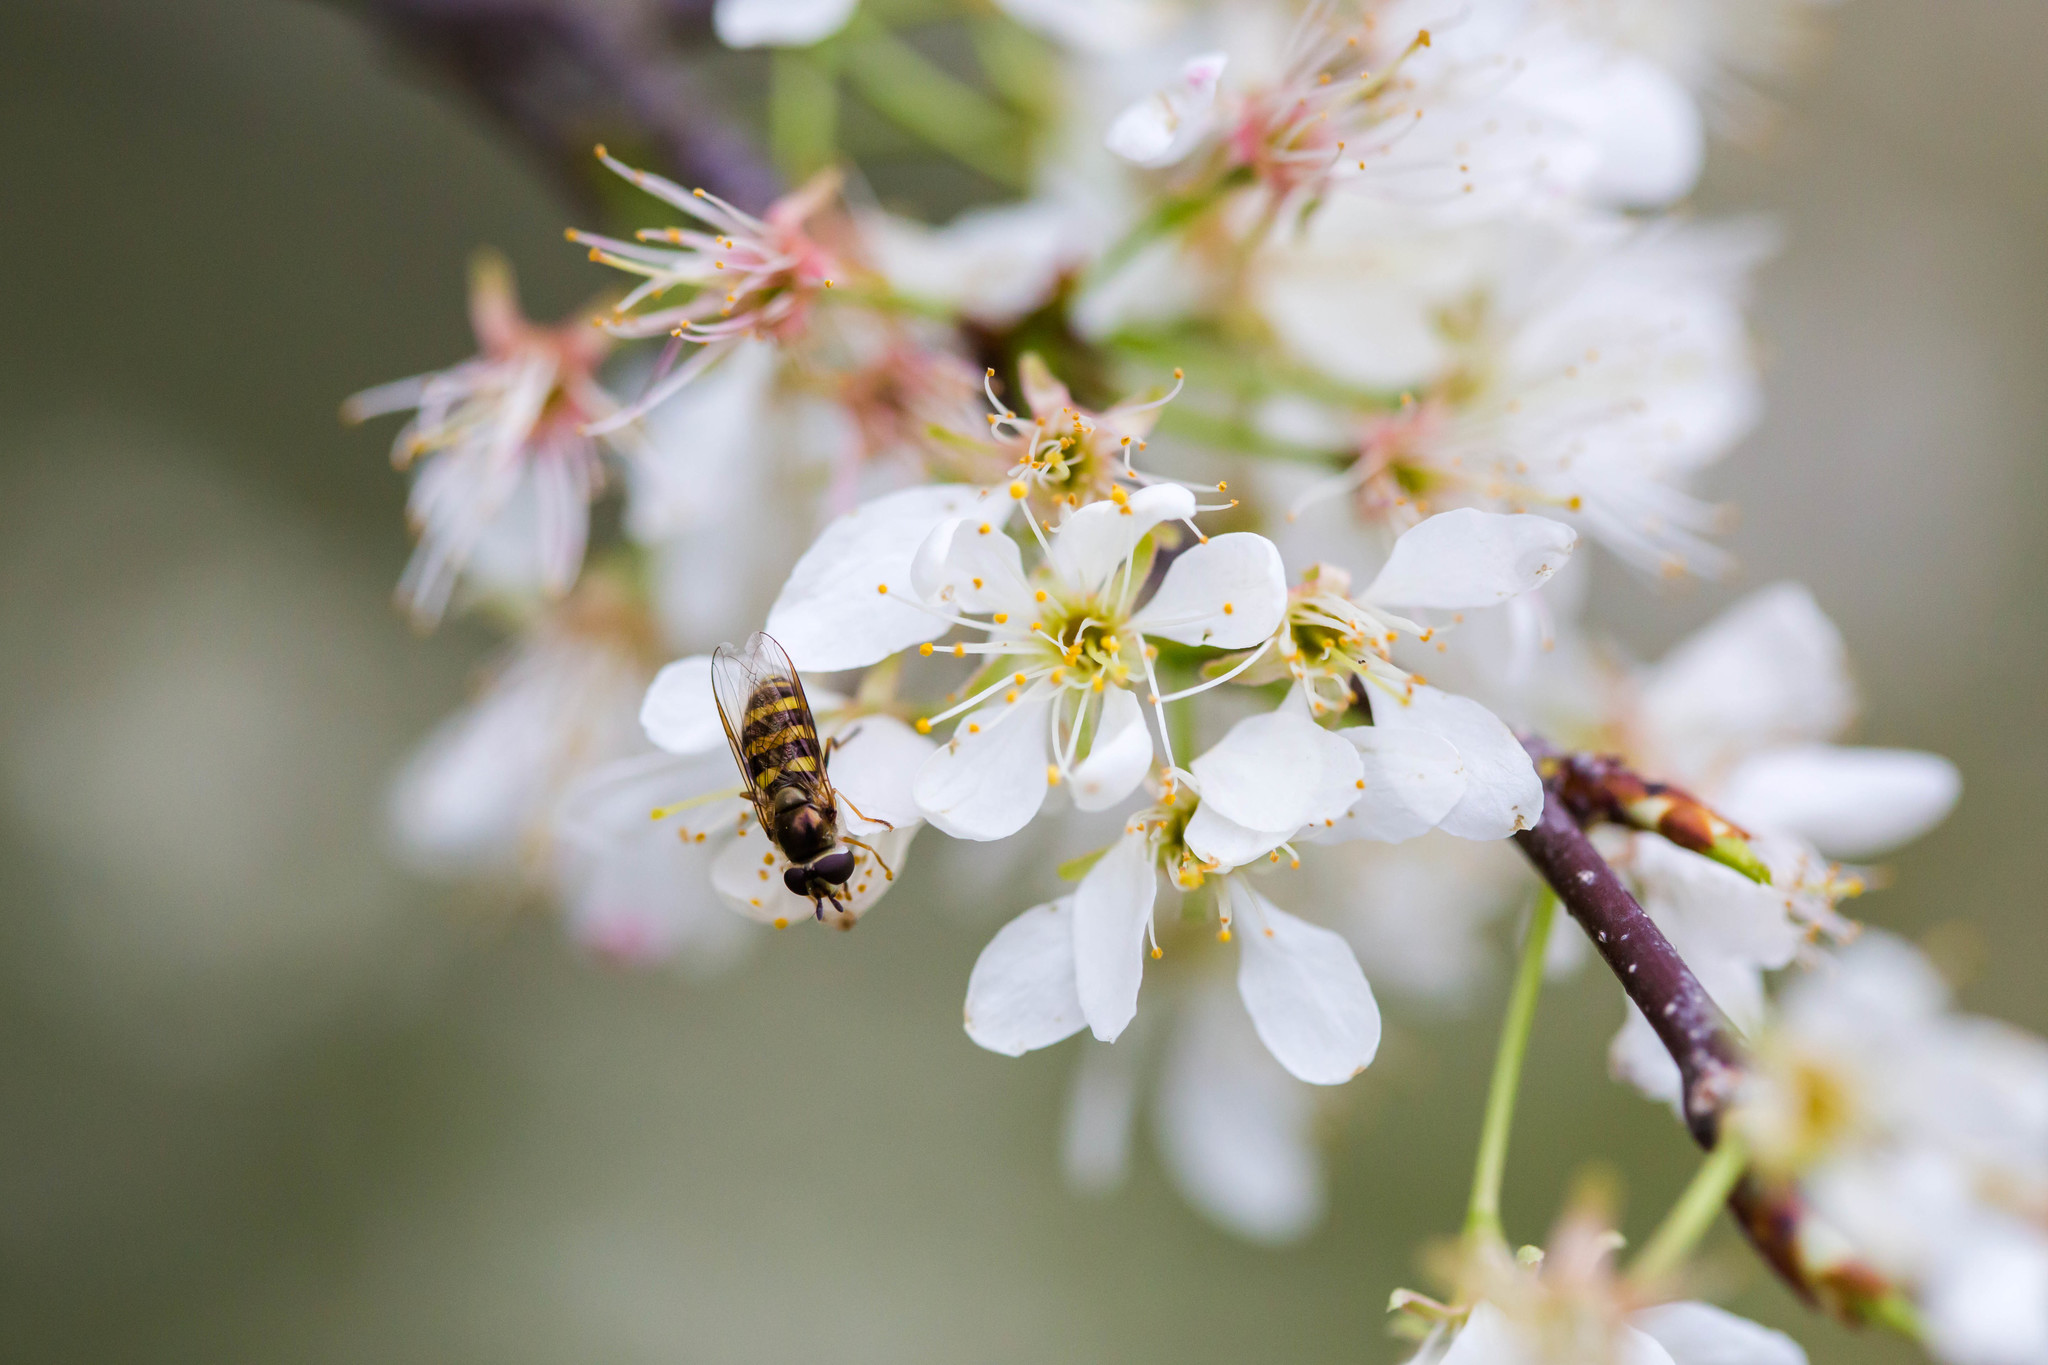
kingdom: Animalia
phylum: Arthropoda
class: Insecta
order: Diptera
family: Syrphidae
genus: Eupeodes
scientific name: Eupeodes
